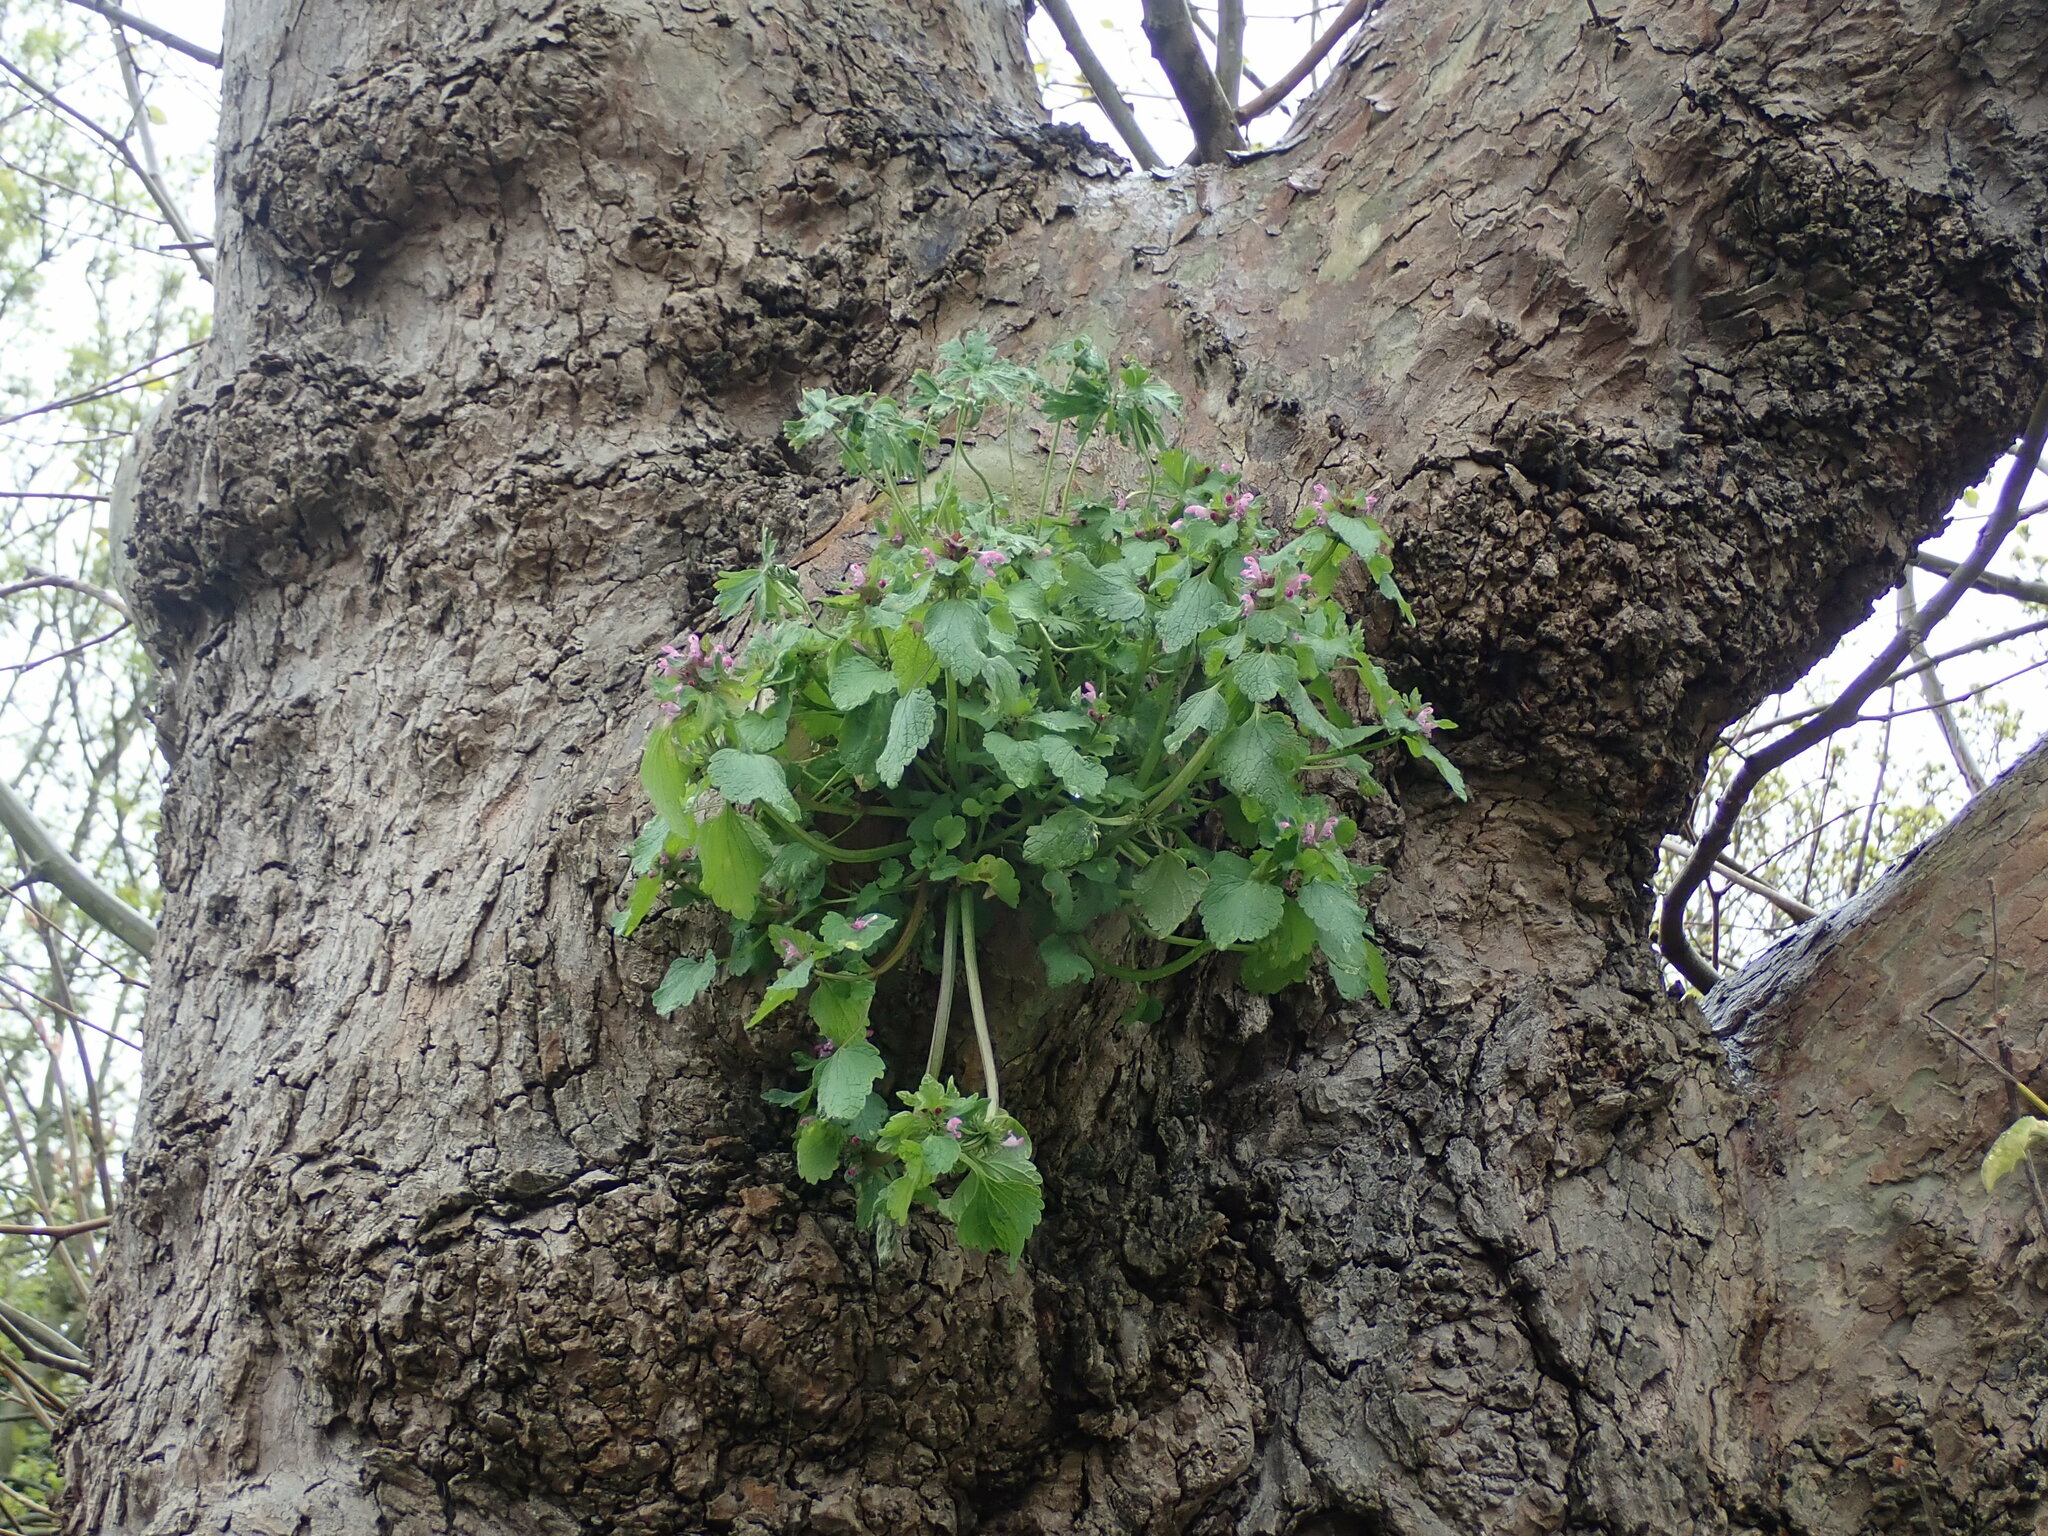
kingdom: Plantae
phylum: Tracheophyta
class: Magnoliopsida
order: Lamiales
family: Lamiaceae
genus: Lamium
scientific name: Lamium purpureum
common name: Red dead-nettle
